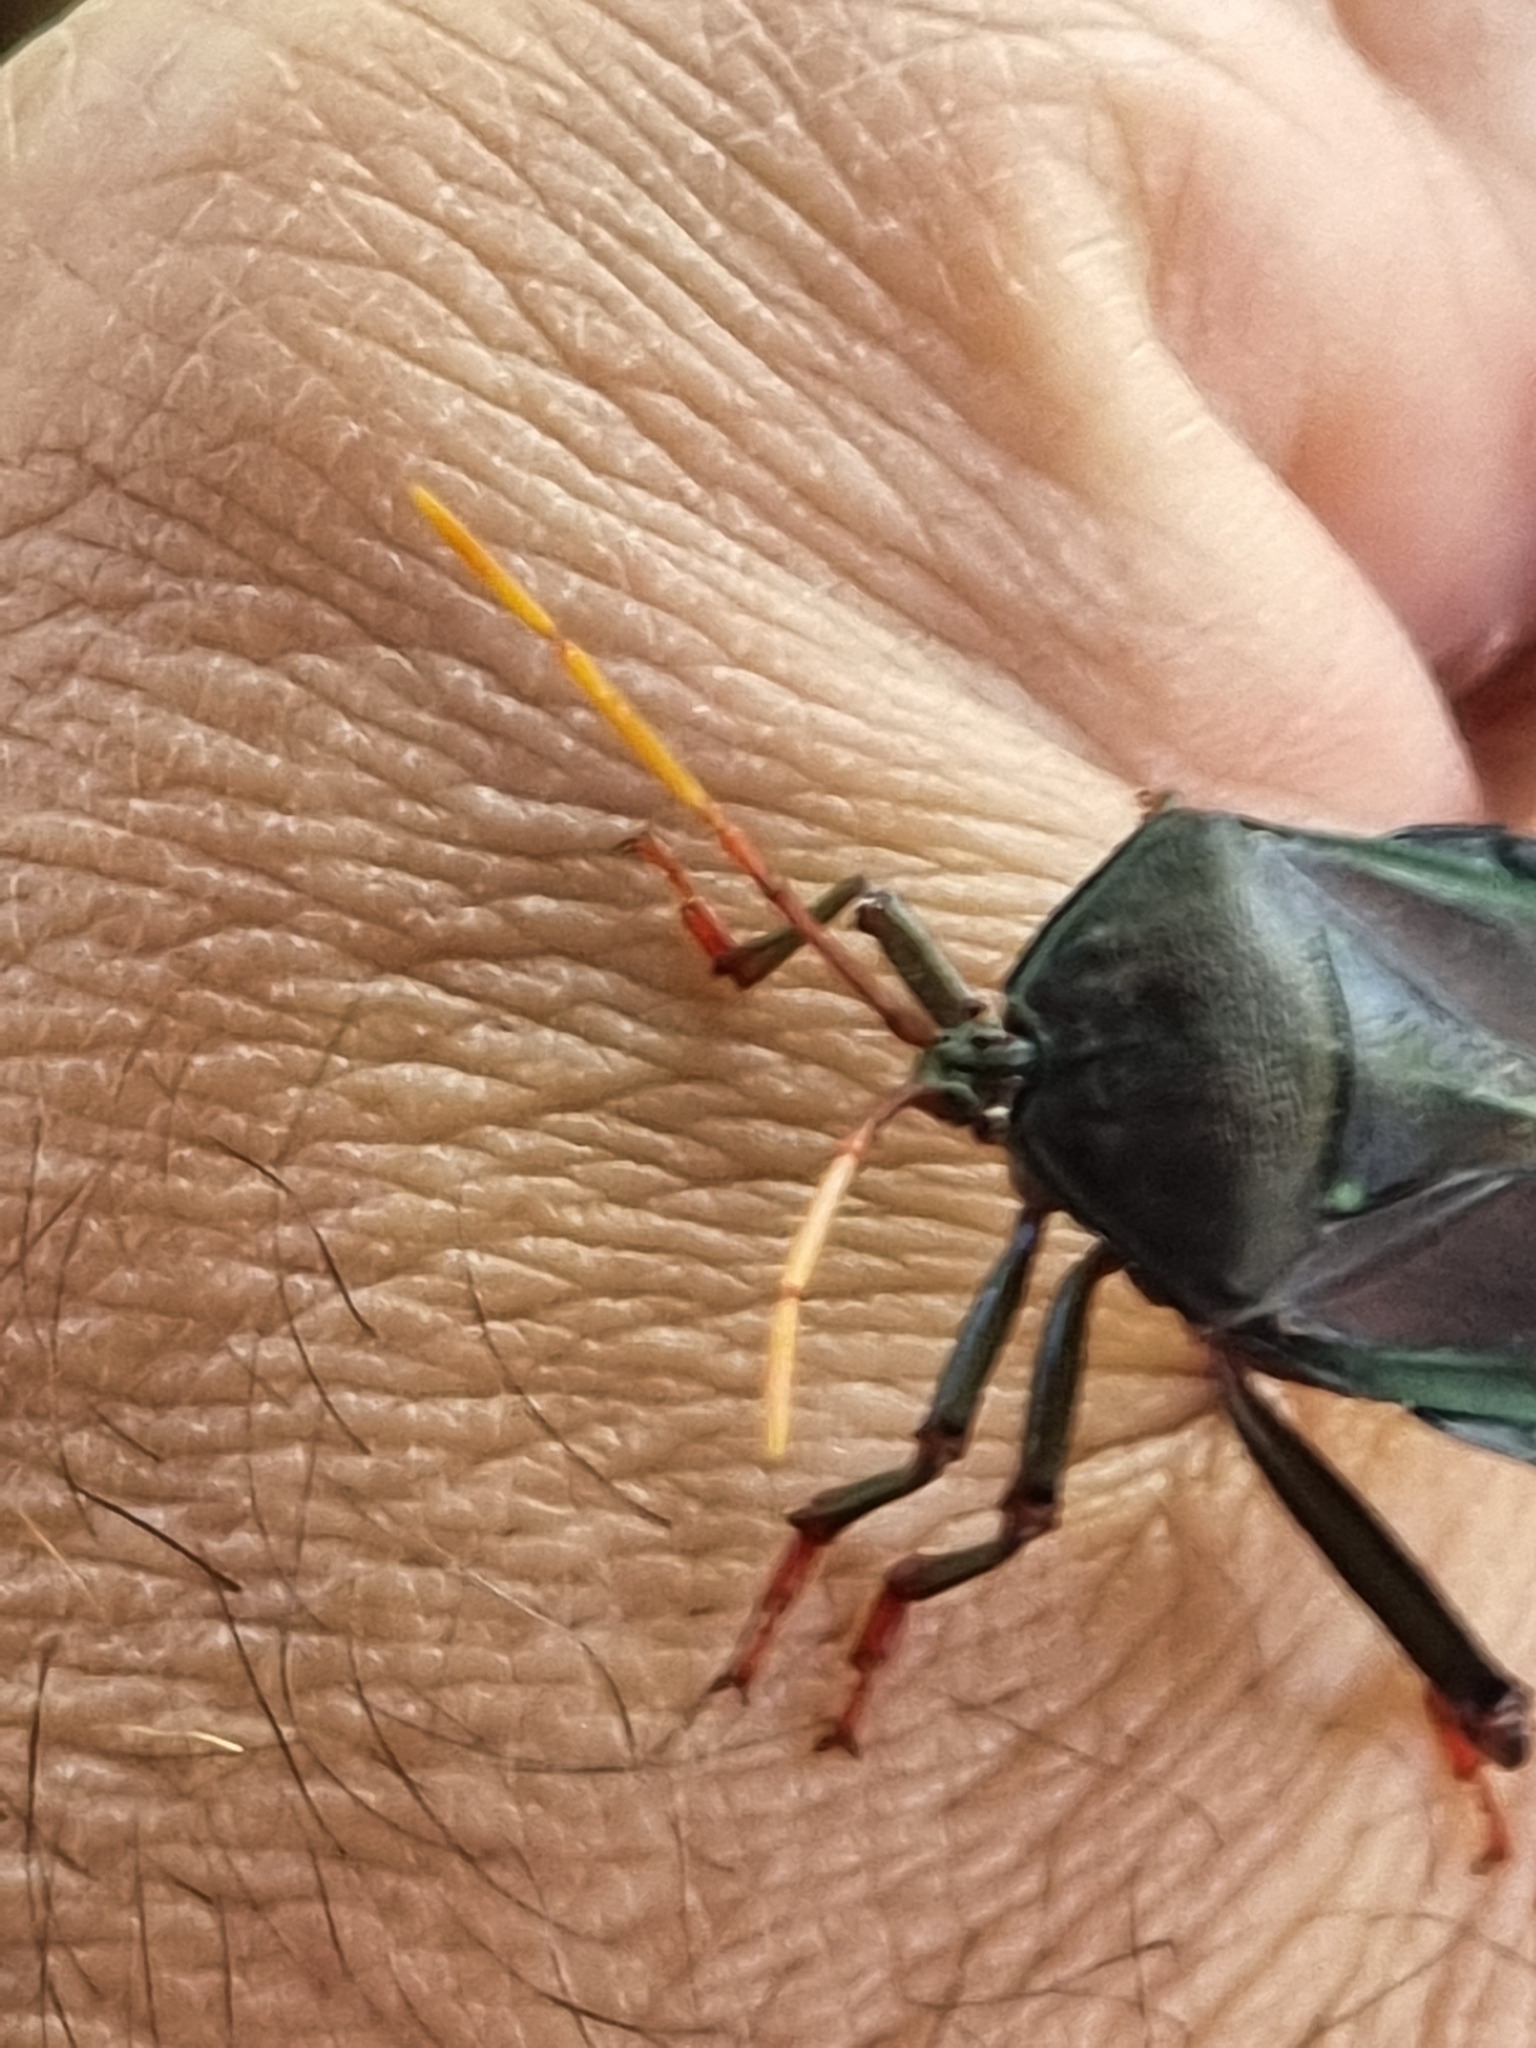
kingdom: Animalia
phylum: Arthropoda
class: Insecta
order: Hemiptera
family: Tessaratomidae
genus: Musgraveia
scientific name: Musgraveia sulciventris
